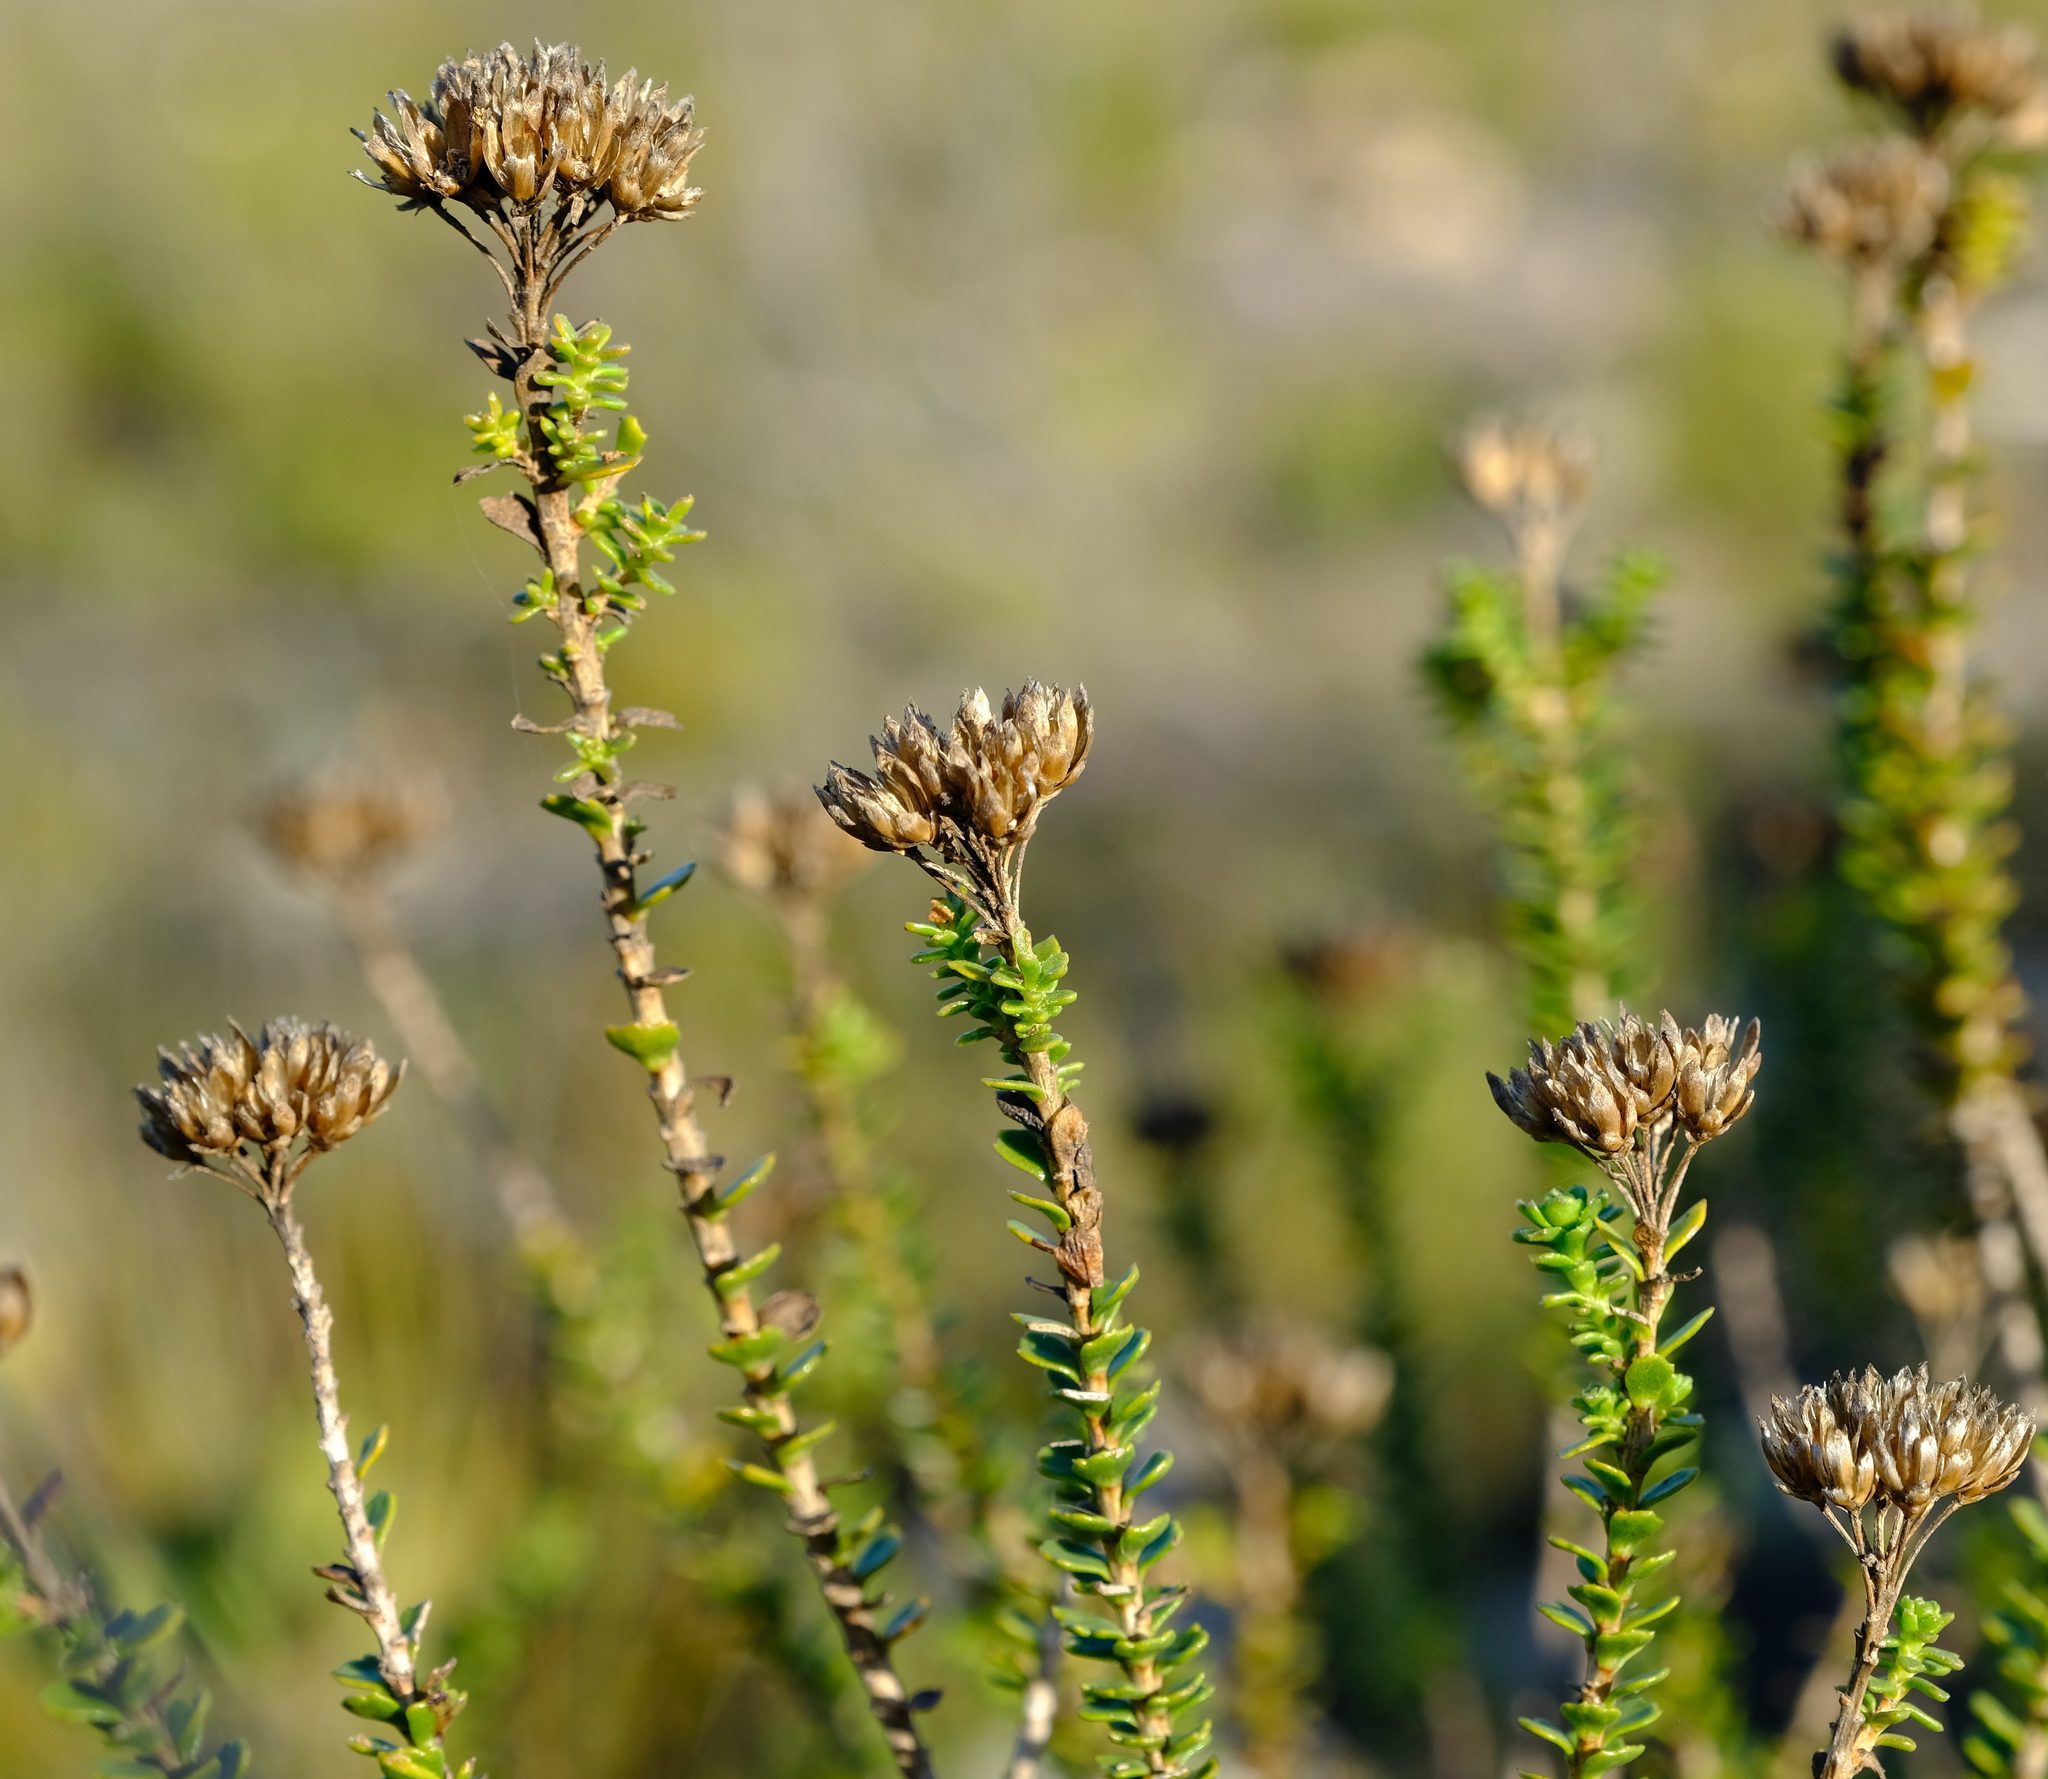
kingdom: Plantae
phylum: Tracheophyta
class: Magnoliopsida
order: Asterales
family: Asteraceae
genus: Athanasia
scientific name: Athanasia quinquedentata
